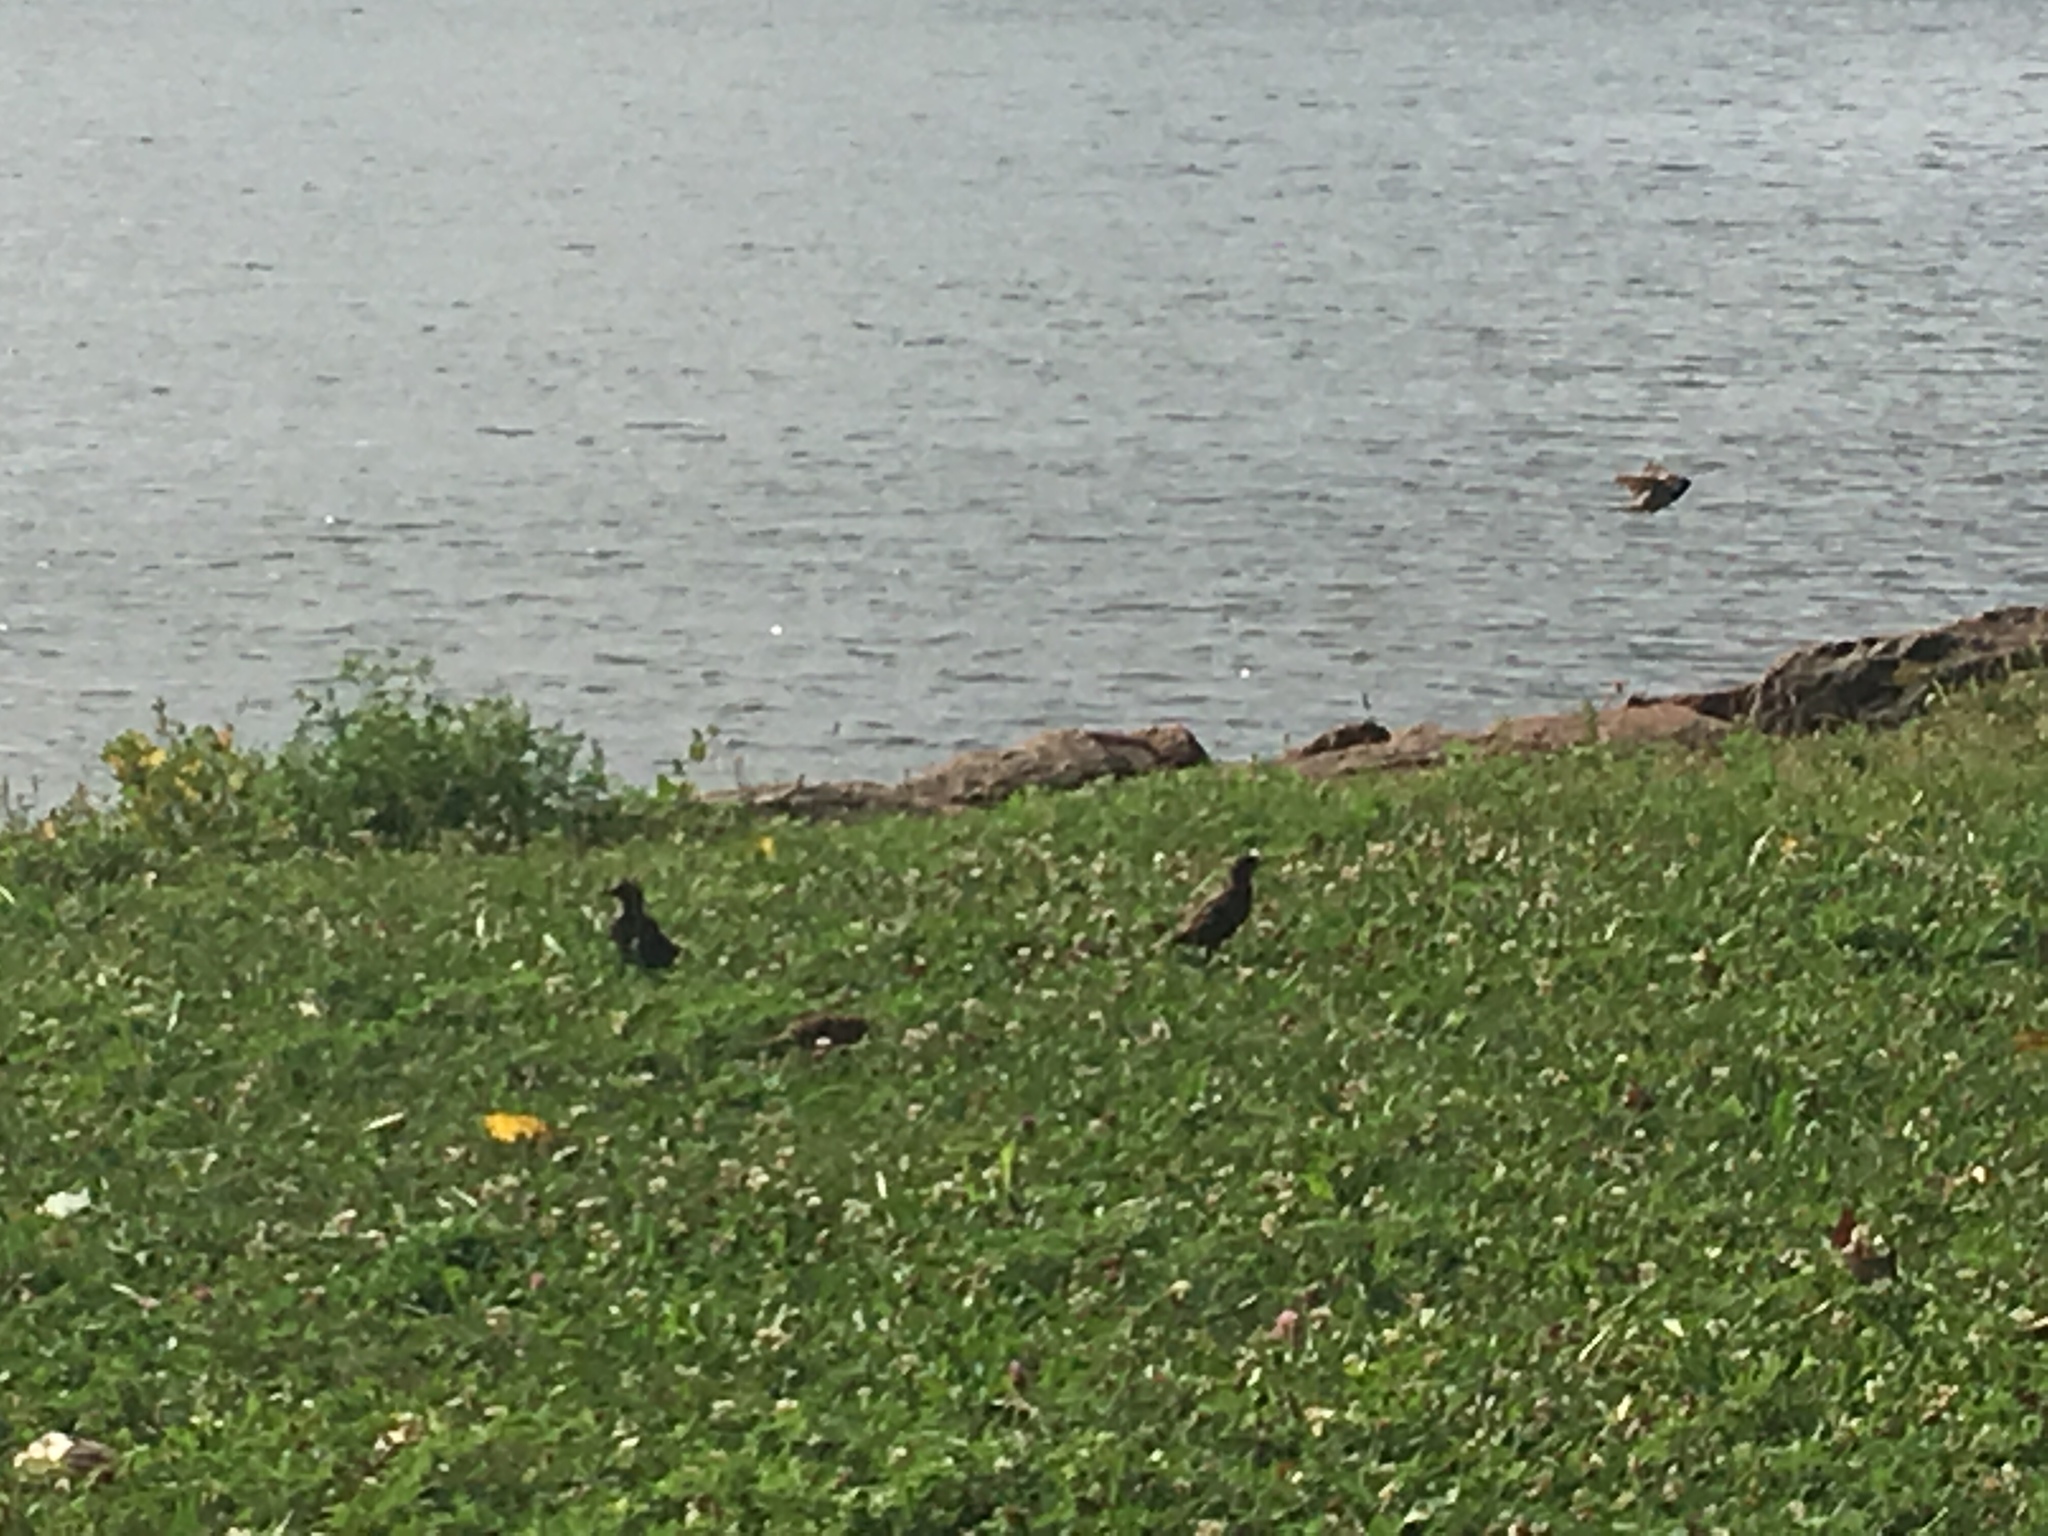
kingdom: Animalia
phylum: Chordata
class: Aves
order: Passeriformes
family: Sturnidae
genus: Sturnus
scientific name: Sturnus vulgaris
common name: Common starling
